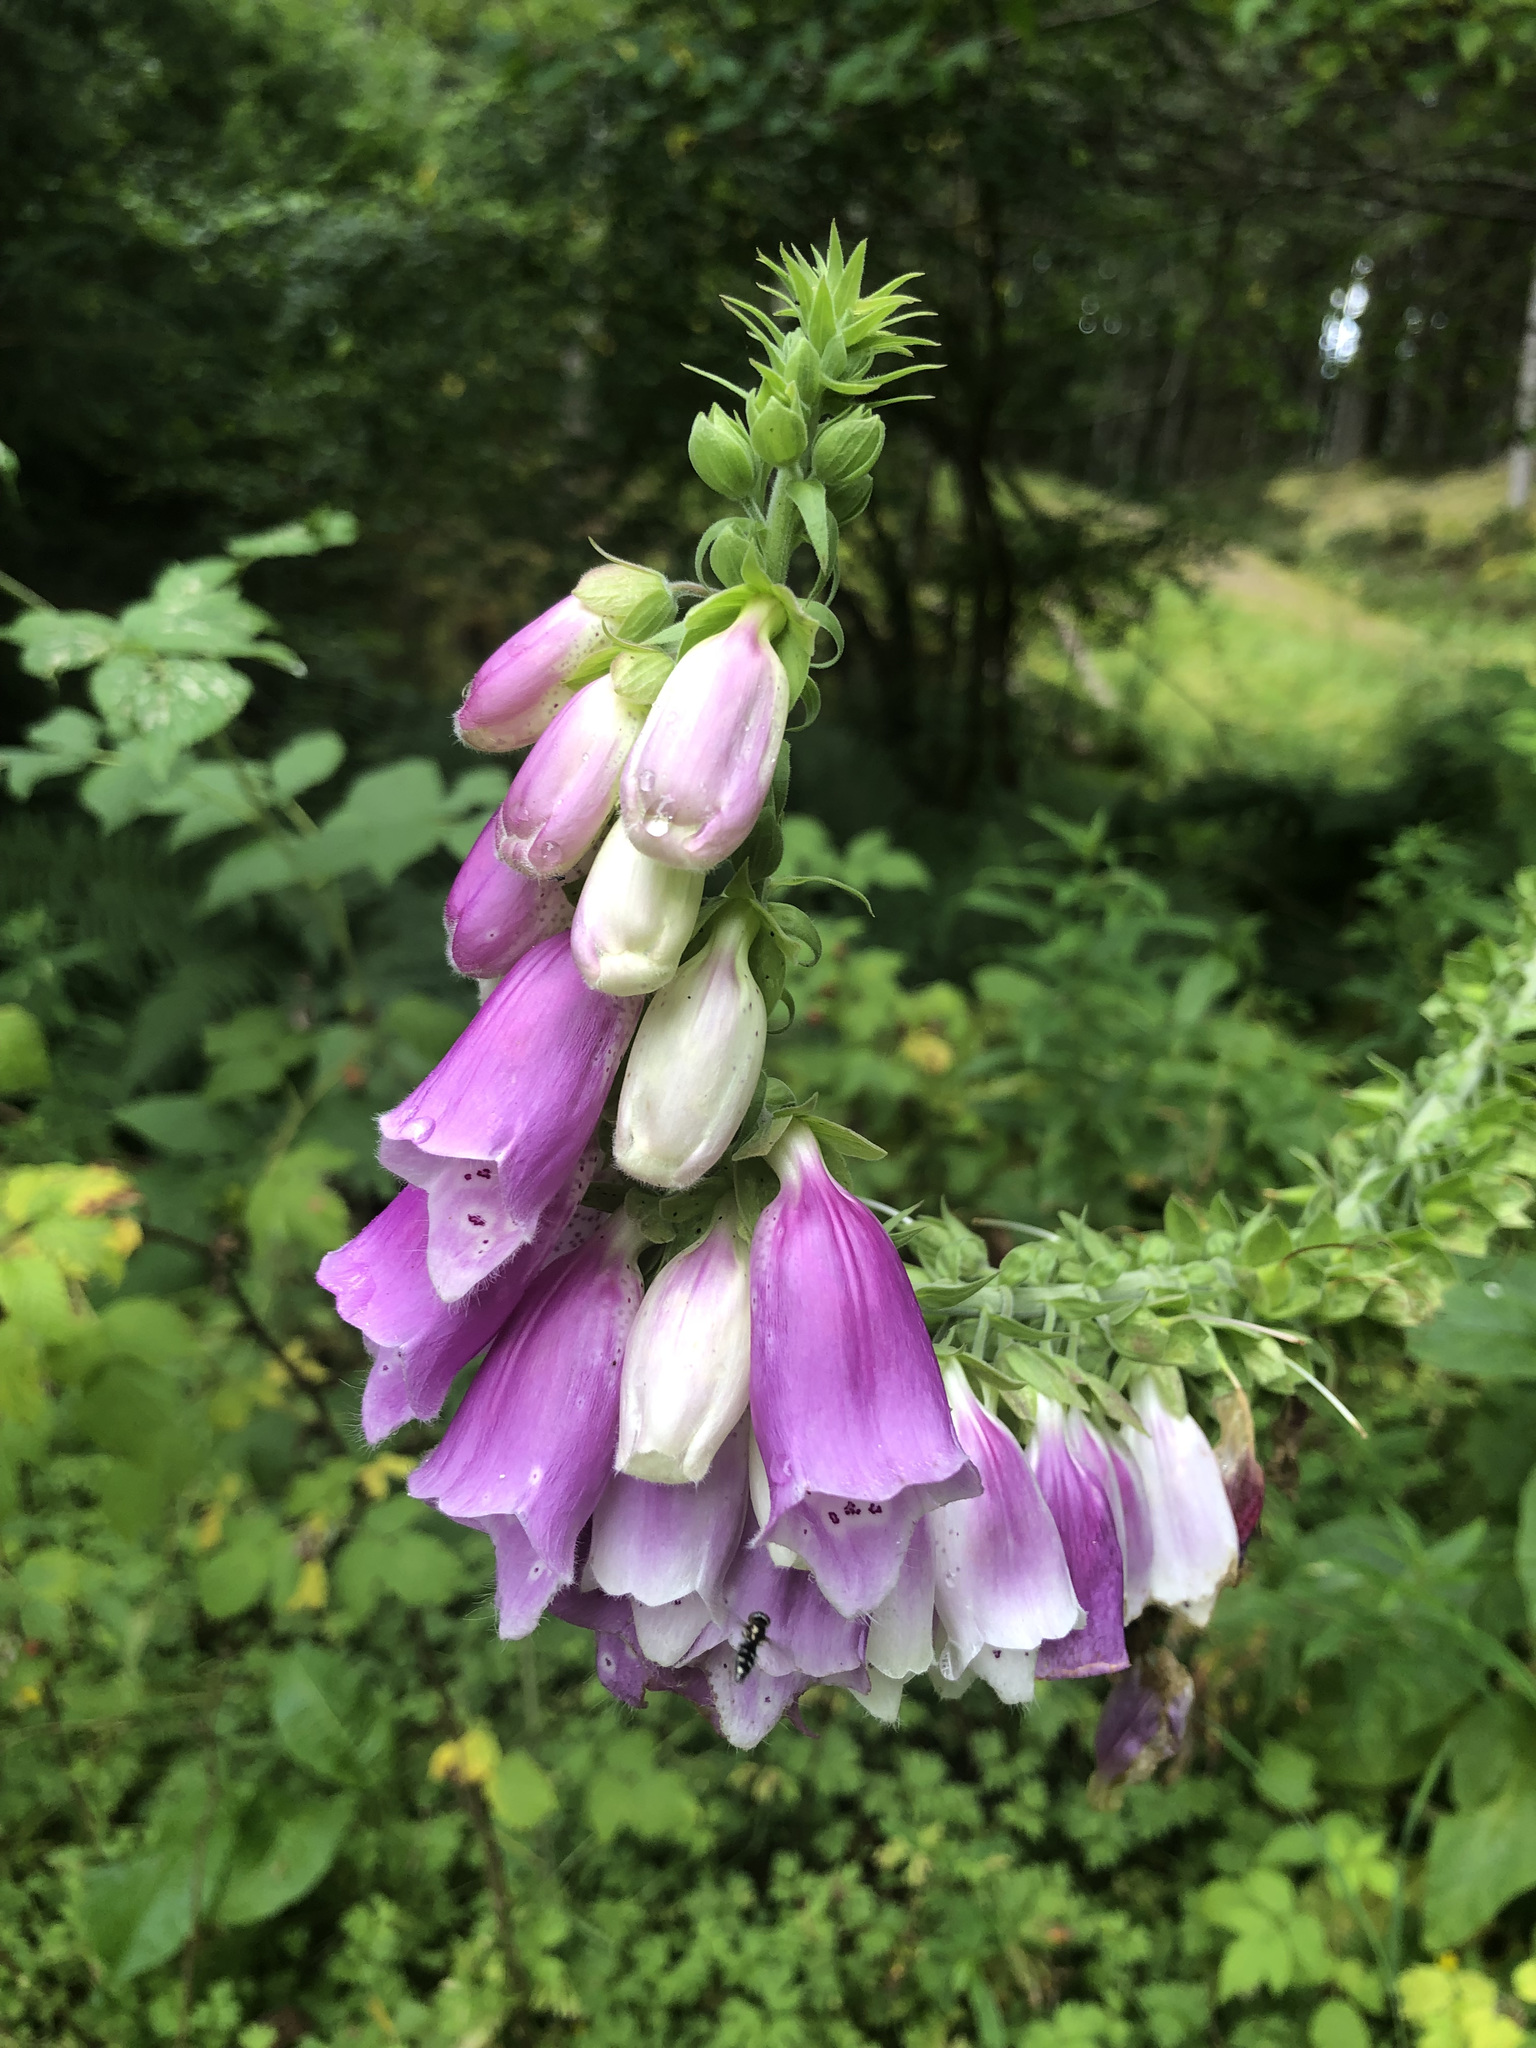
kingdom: Plantae
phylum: Tracheophyta
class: Magnoliopsida
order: Lamiales
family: Plantaginaceae
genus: Digitalis
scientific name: Digitalis purpurea
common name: Foxglove
